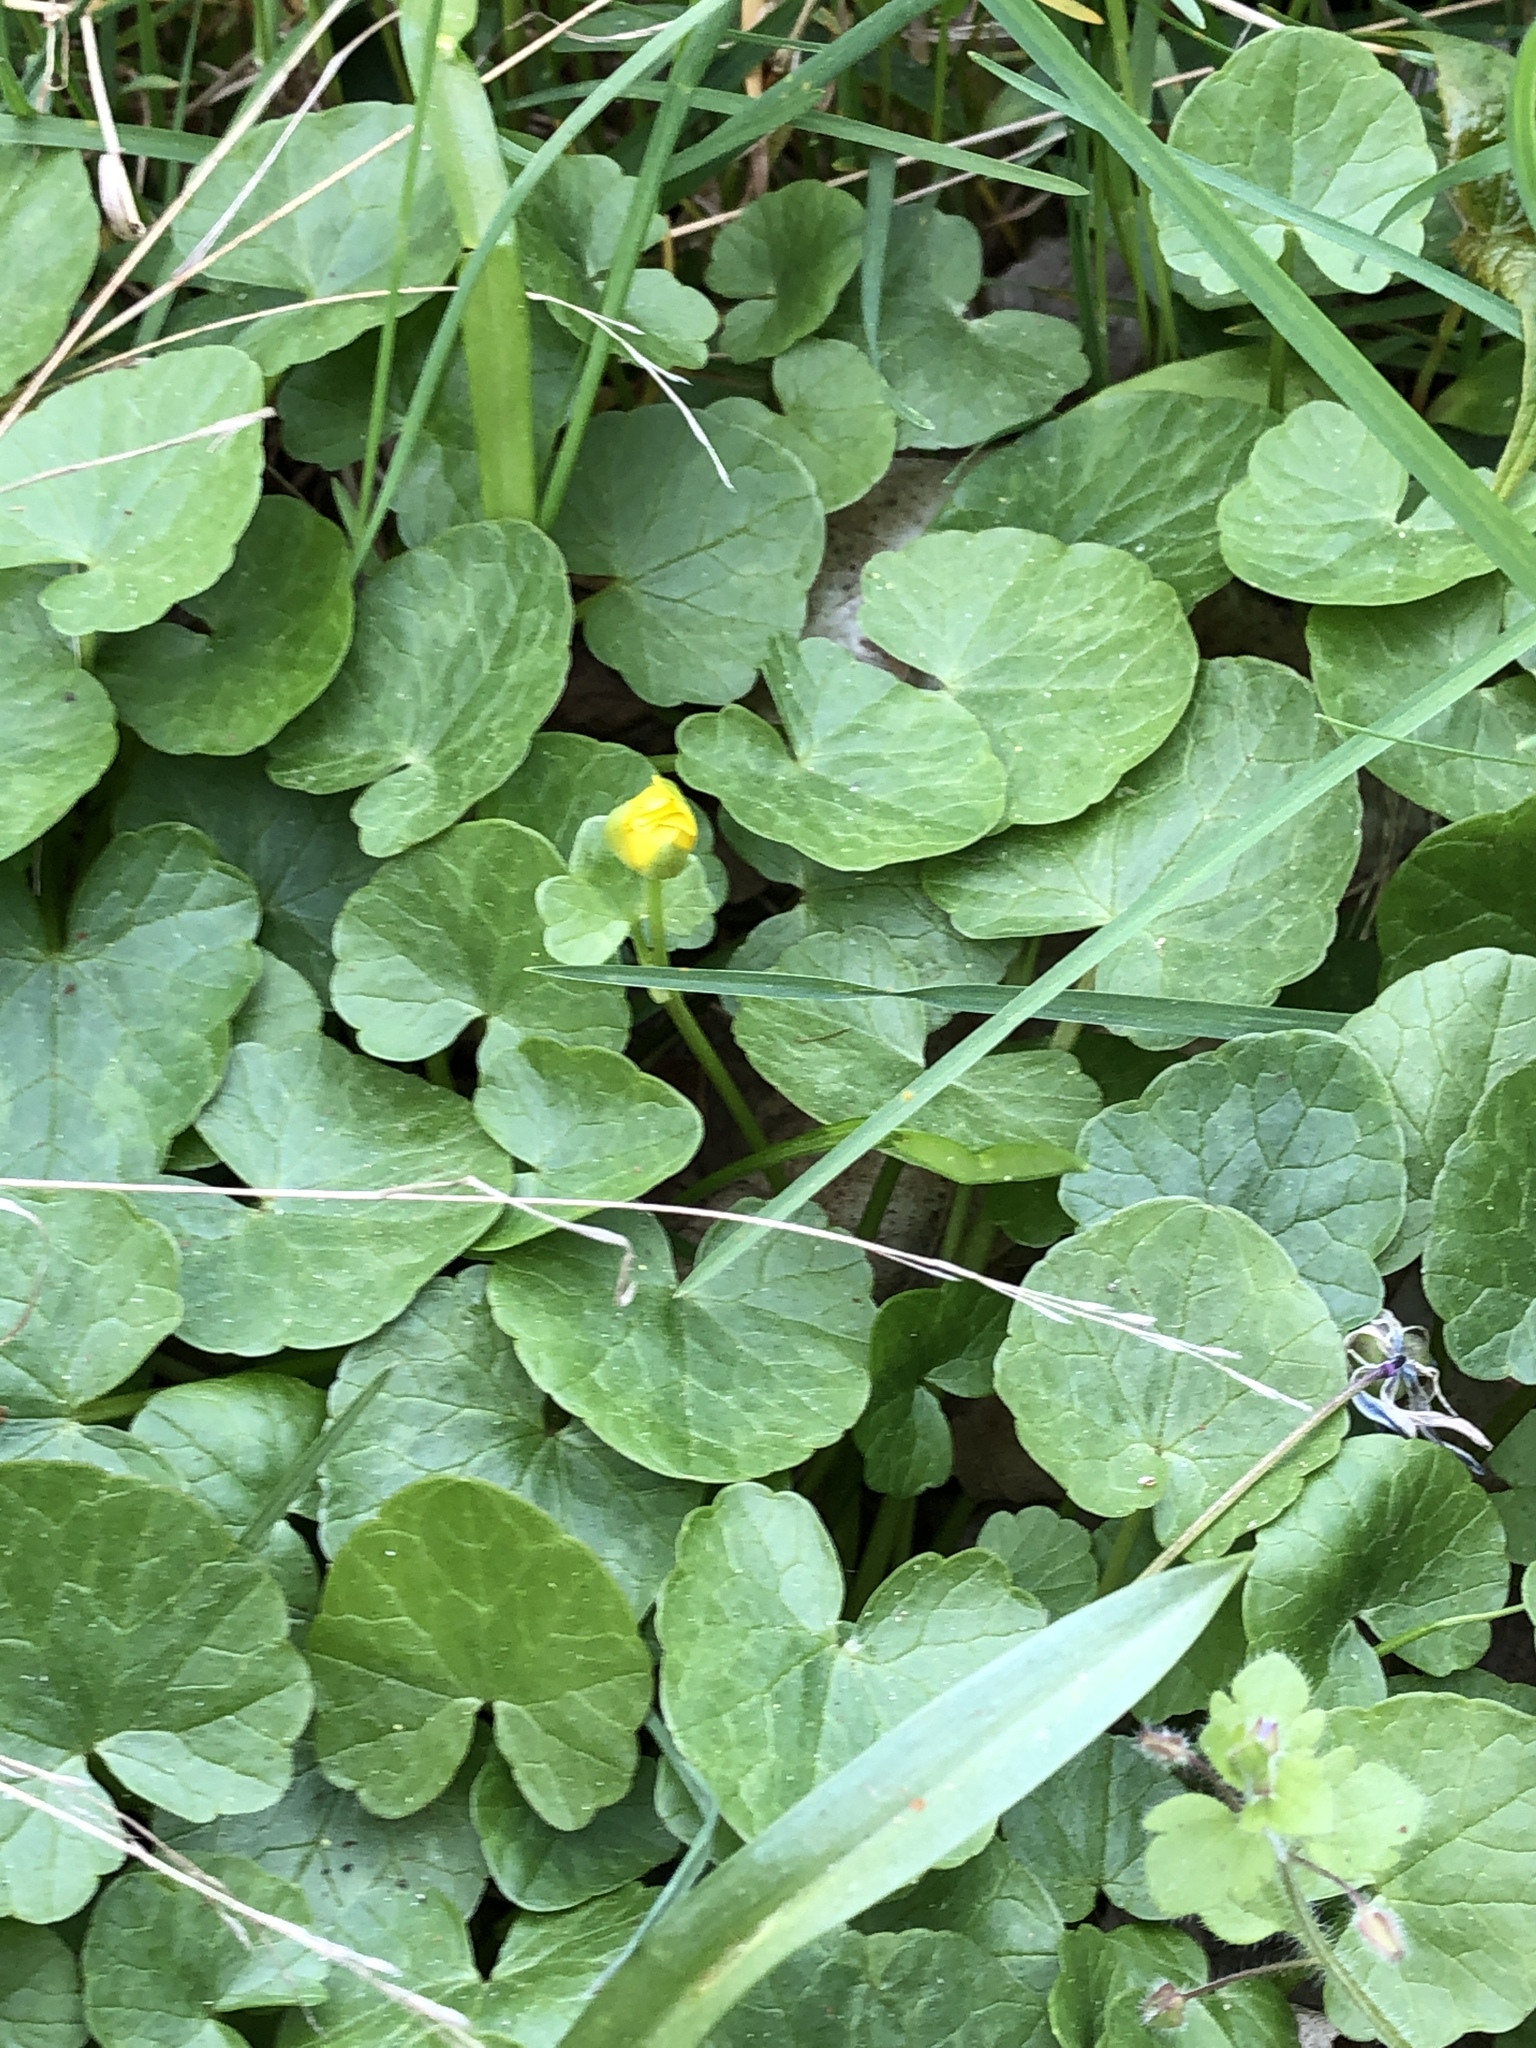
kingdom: Plantae
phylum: Tracheophyta
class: Magnoliopsida
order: Ranunculales
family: Ranunculaceae
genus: Ficaria
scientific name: Ficaria verna
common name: Lesser celandine
